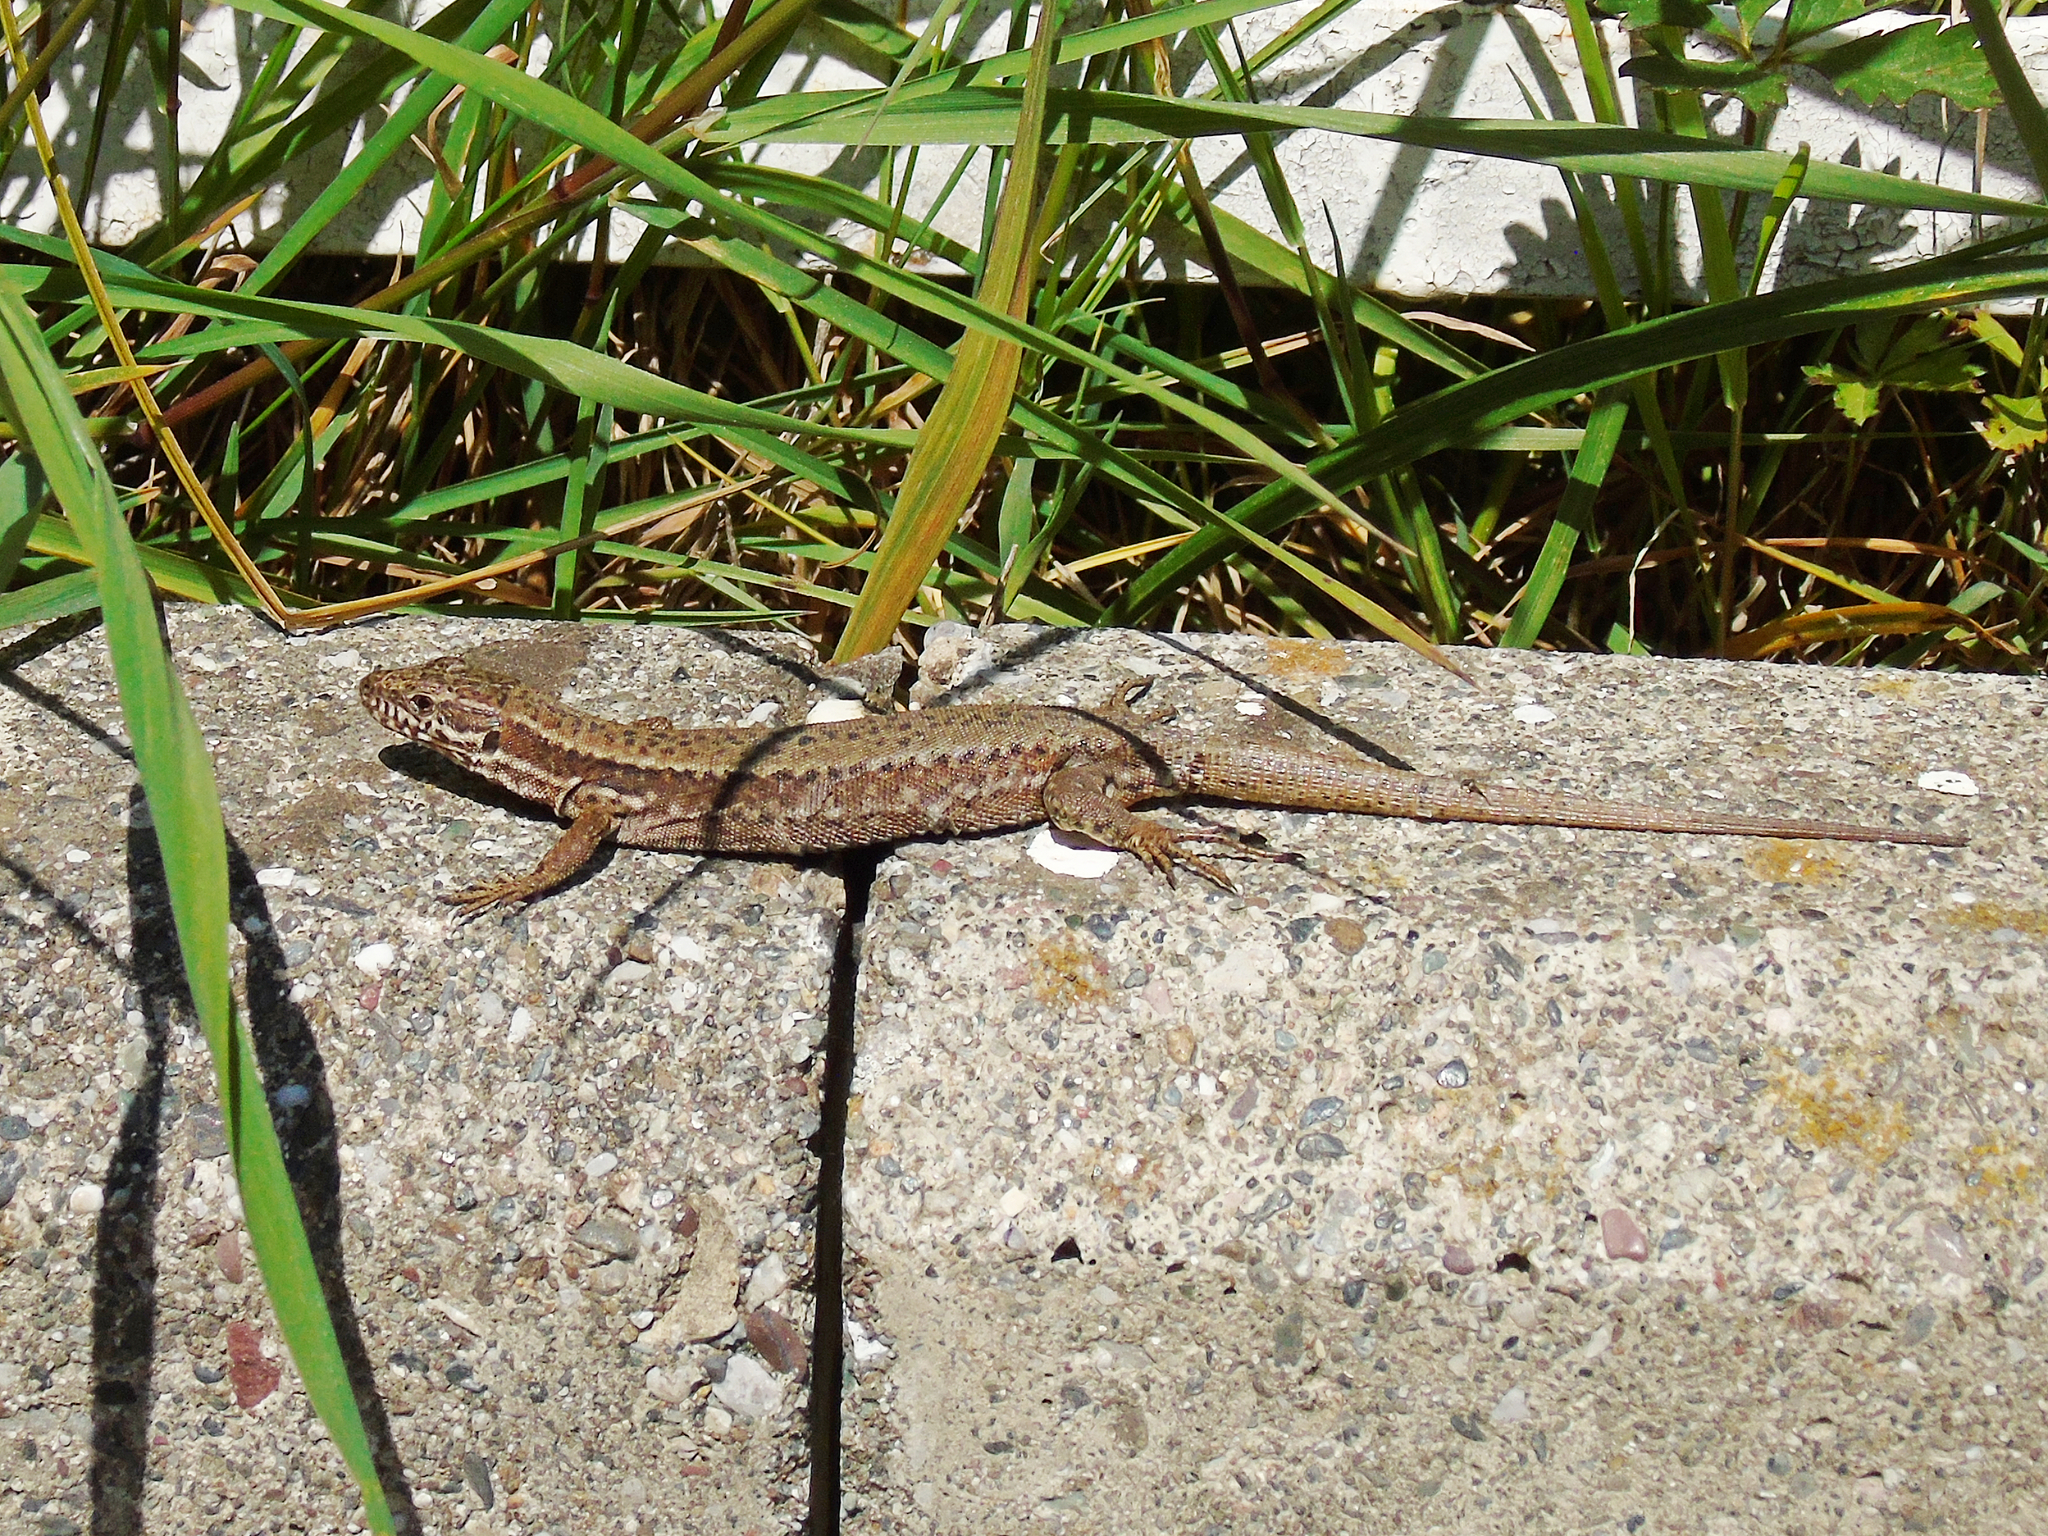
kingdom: Animalia
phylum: Chordata
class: Squamata
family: Lacertidae
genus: Podarcis
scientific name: Podarcis muralis
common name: Common wall lizard
